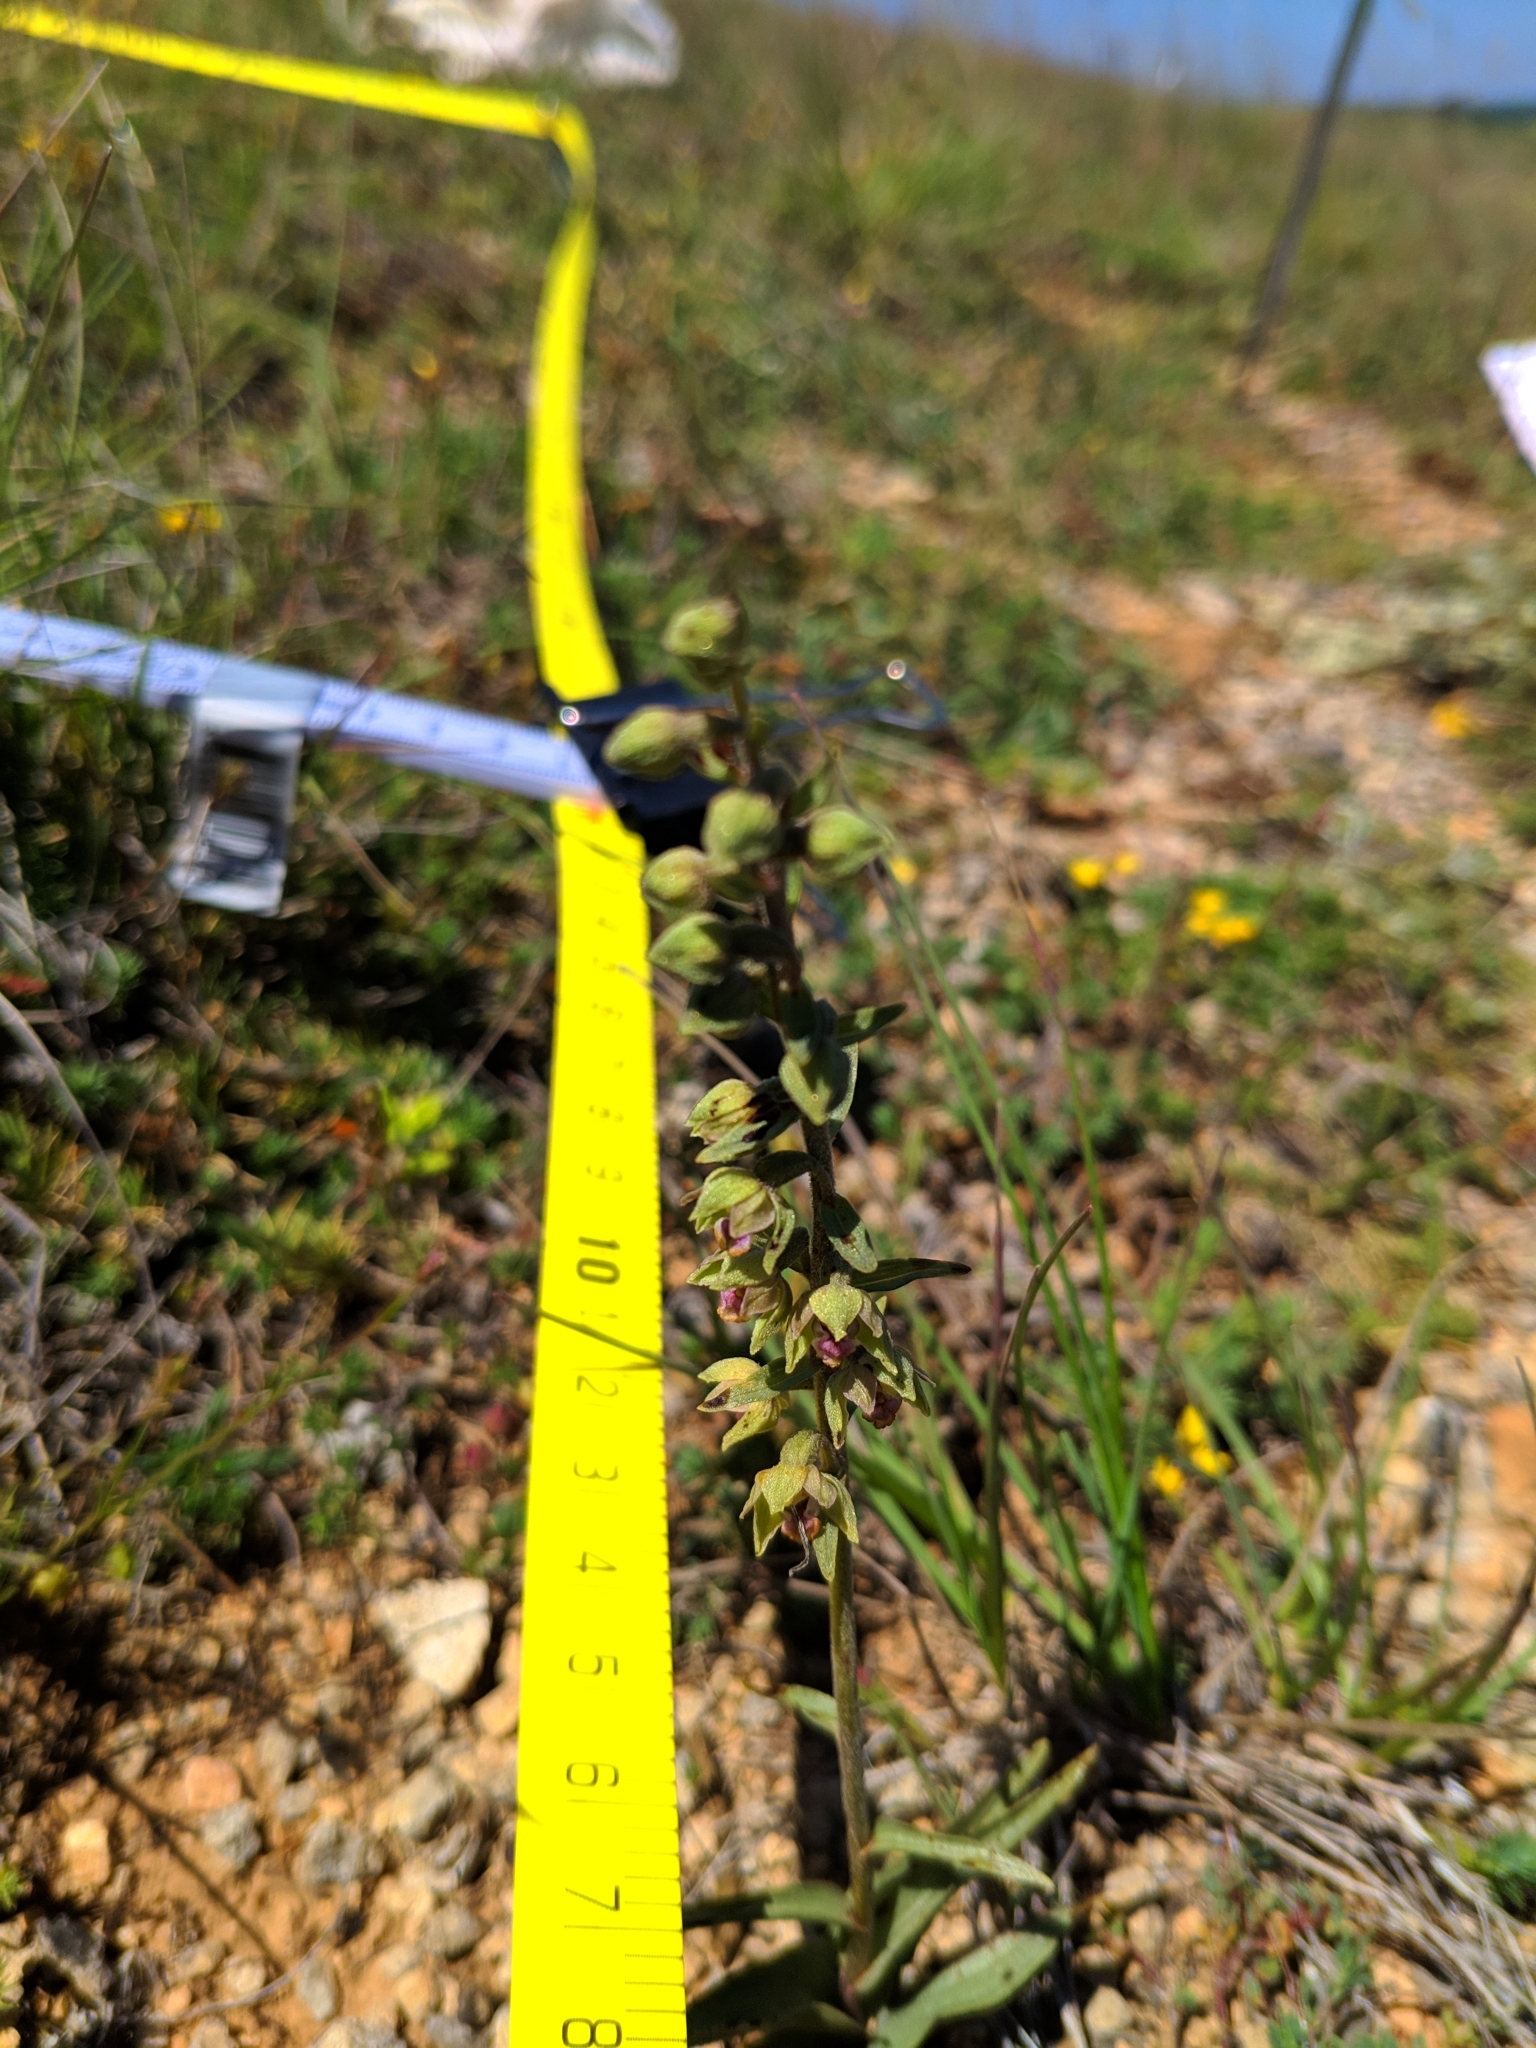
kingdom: Plantae
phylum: Tracheophyta
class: Liliopsida
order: Asparagales
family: Orchidaceae
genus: Epipactis
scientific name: Epipactis kleinii
